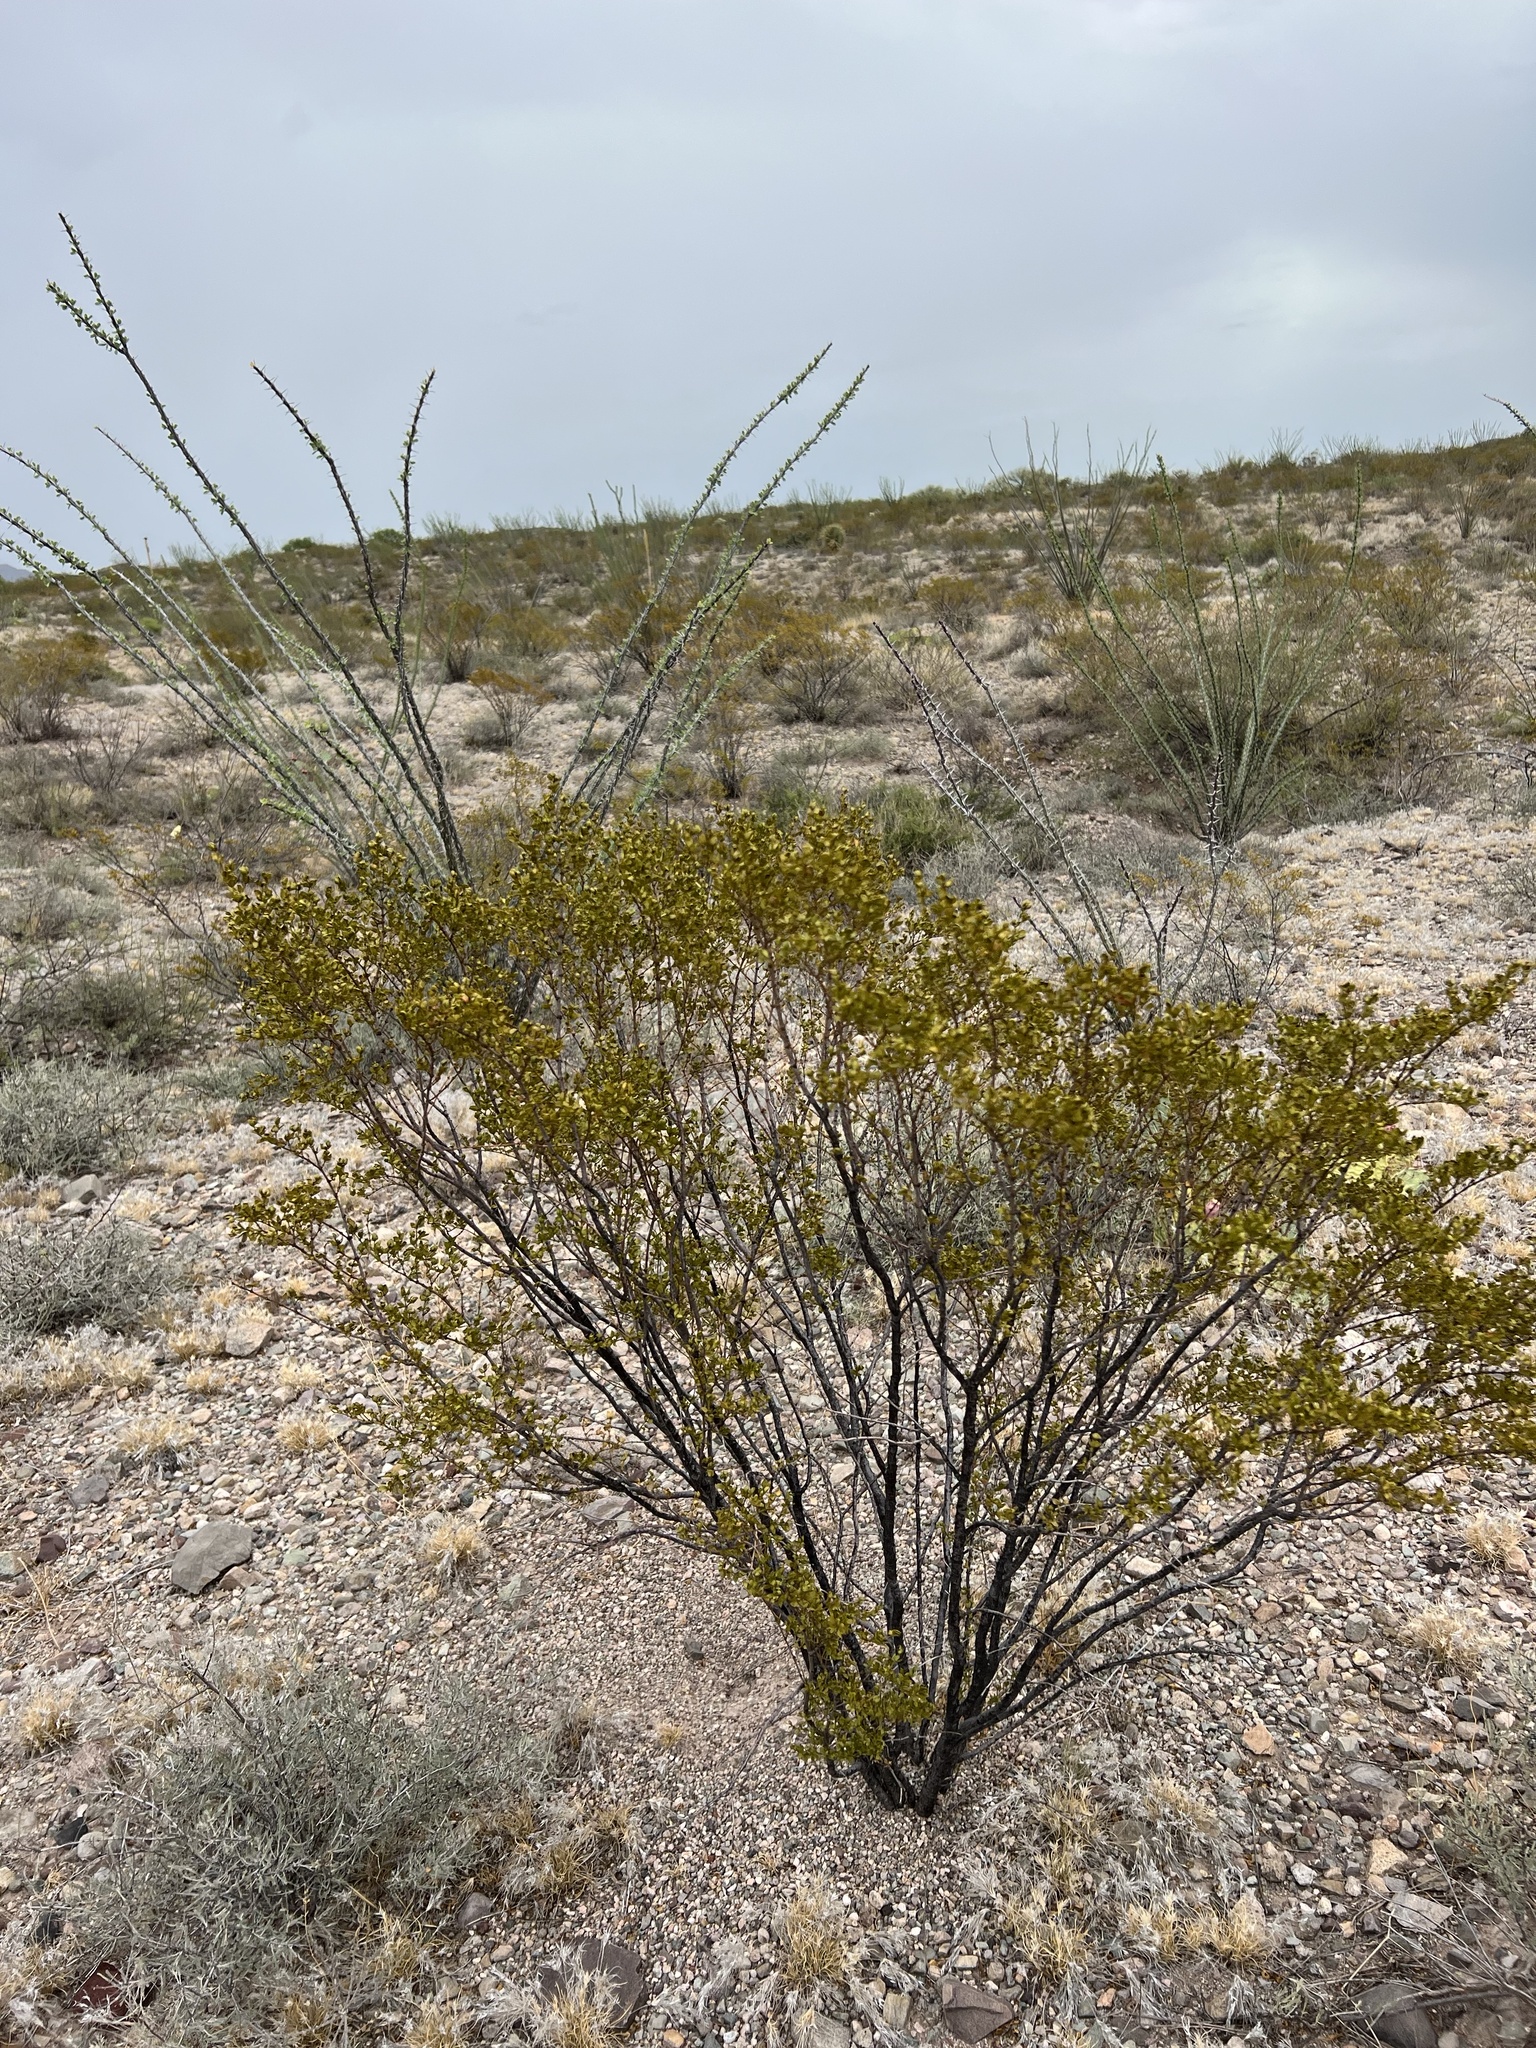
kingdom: Plantae
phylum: Tracheophyta
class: Magnoliopsida
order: Zygophyllales
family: Zygophyllaceae
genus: Larrea
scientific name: Larrea tridentata
